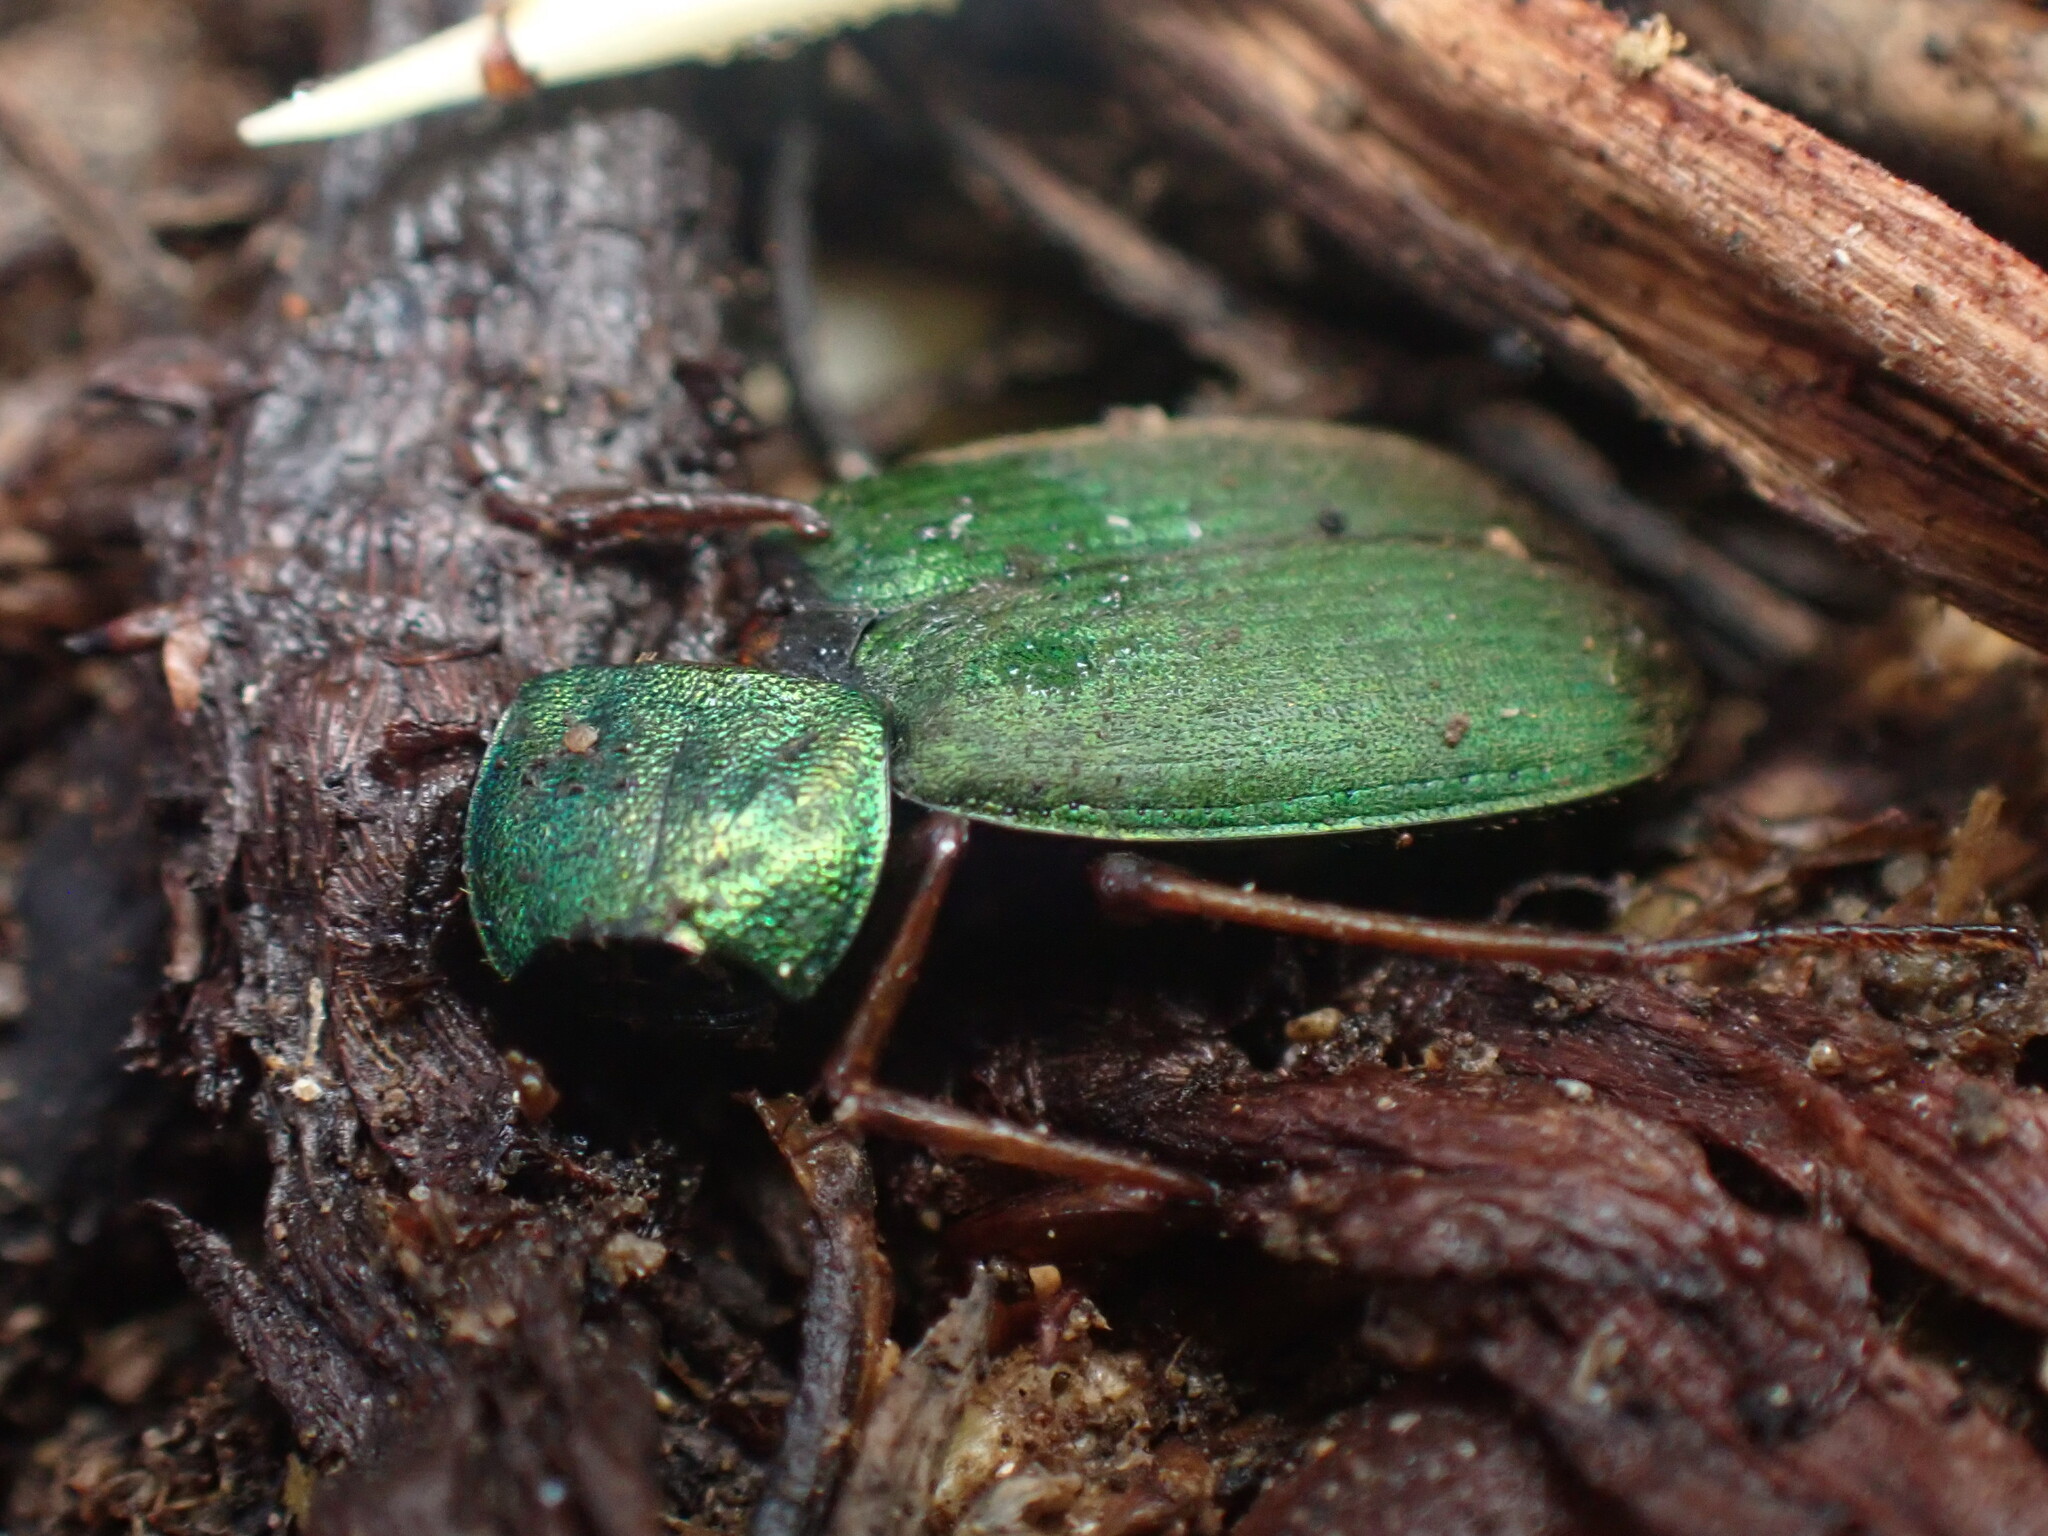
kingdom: Animalia
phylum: Arthropoda
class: Insecta
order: Coleoptera
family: Carabidae
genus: Chlaenius
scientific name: Chlaenius sericeus
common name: Green pubescent ground beetle
